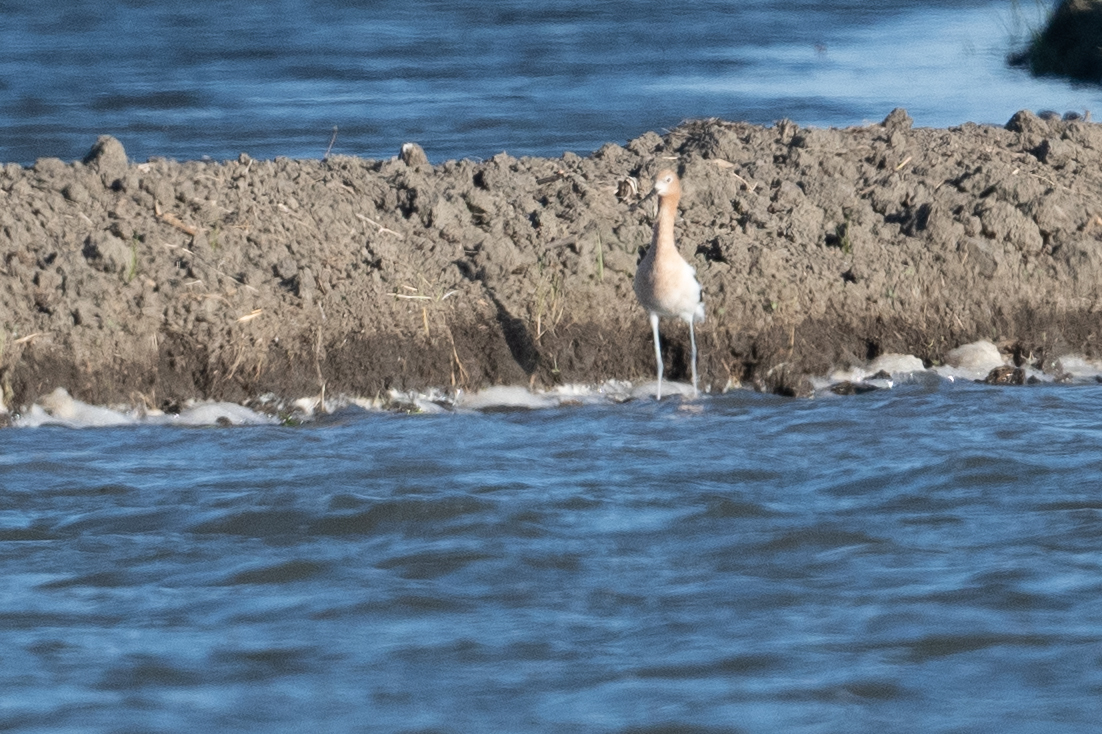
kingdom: Animalia
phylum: Chordata
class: Aves
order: Charadriiformes
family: Recurvirostridae
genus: Recurvirostra
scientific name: Recurvirostra americana
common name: American avocet
